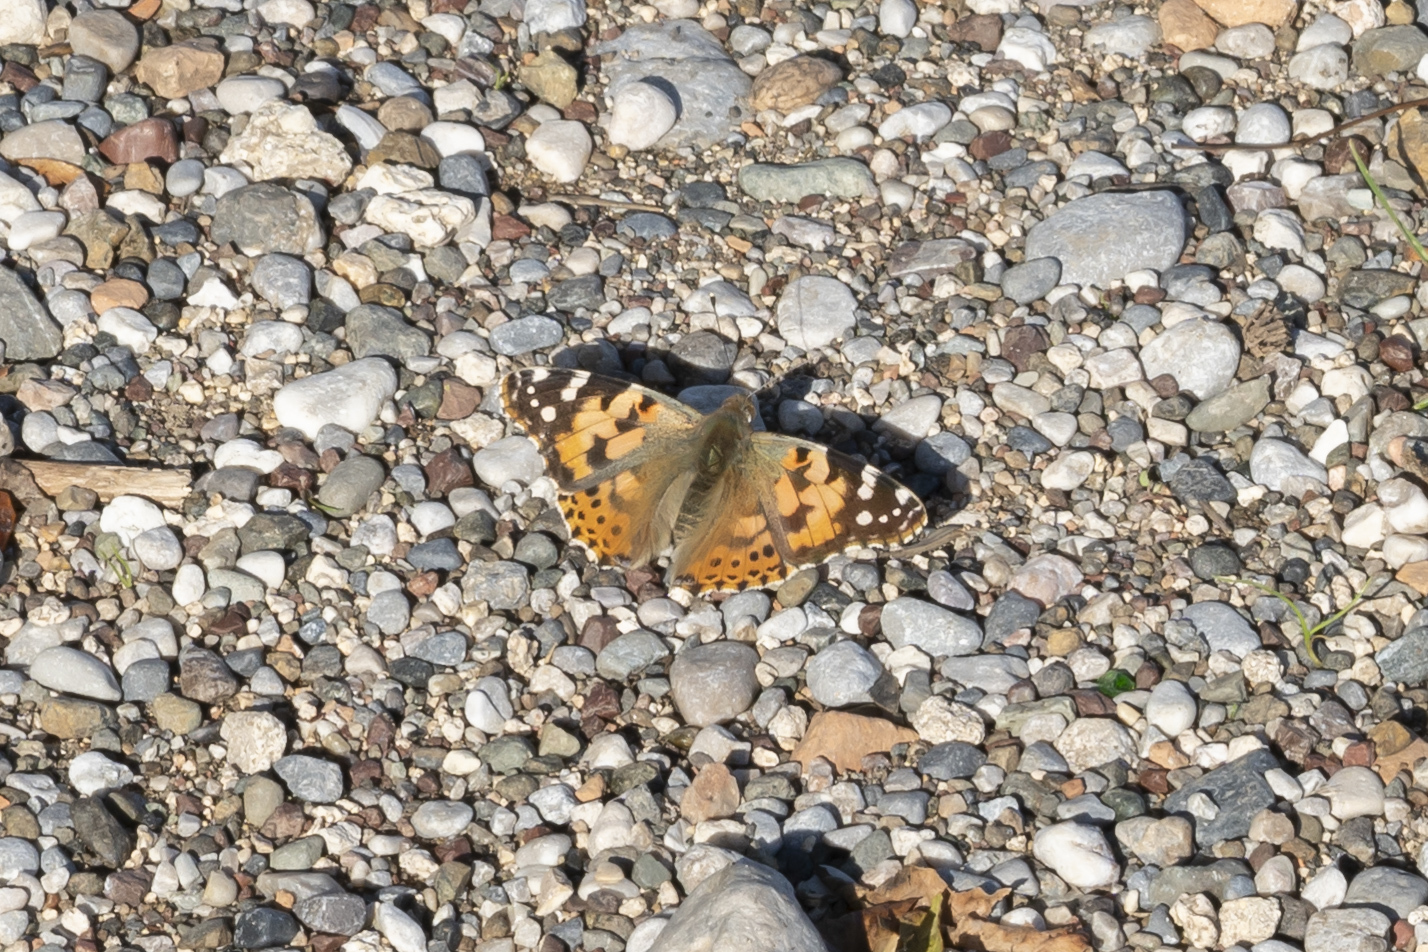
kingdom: Animalia
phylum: Arthropoda
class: Insecta
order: Lepidoptera
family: Nymphalidae
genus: Vanessa
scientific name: Vanessa cardui
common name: Painted lady
